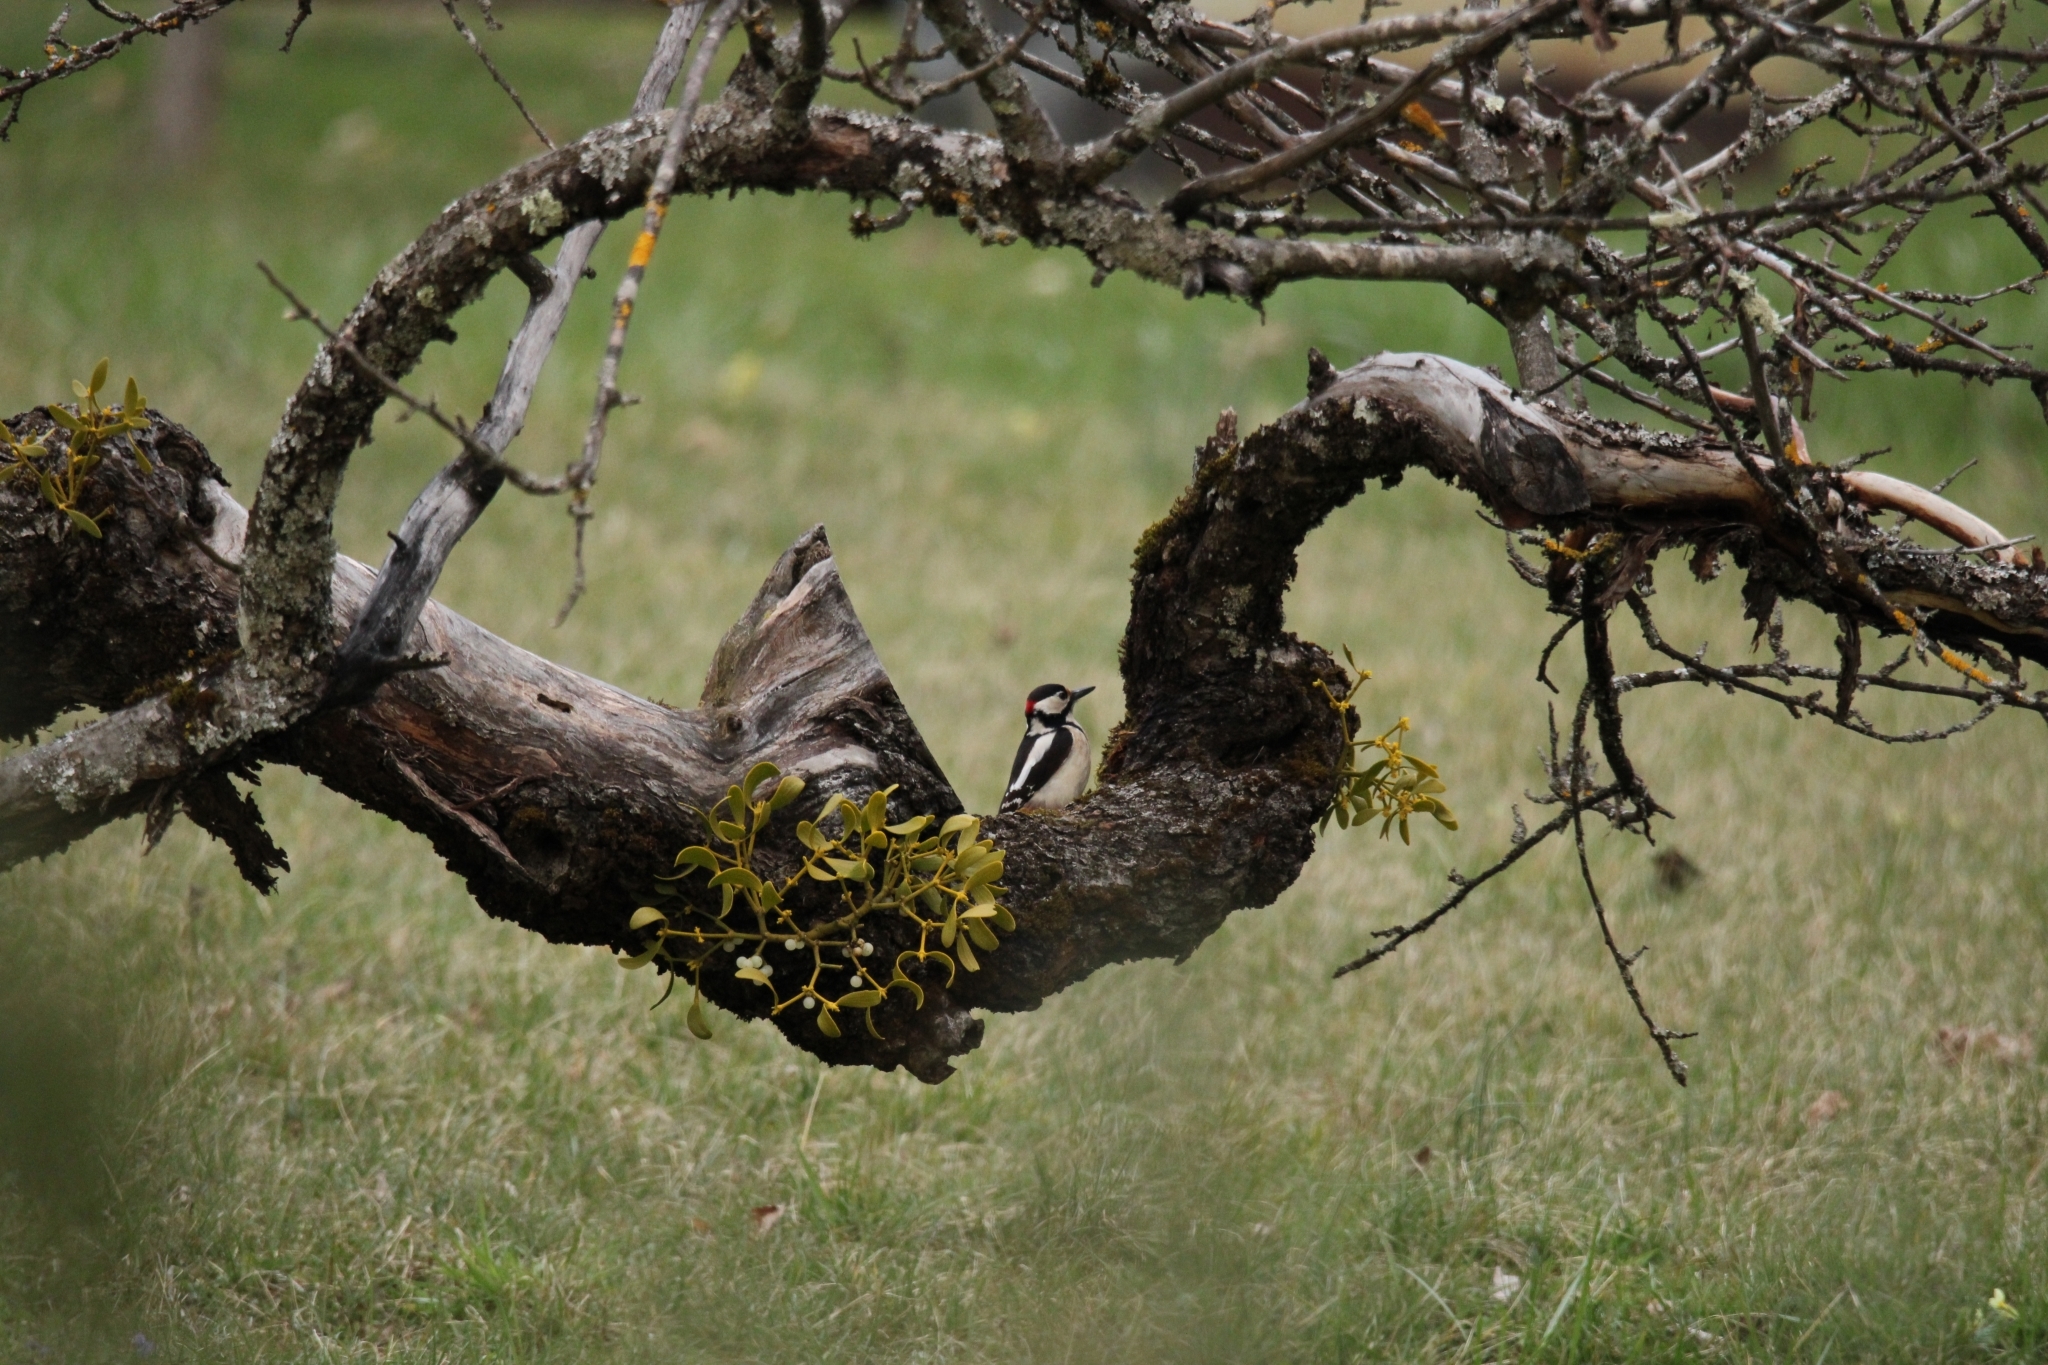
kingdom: Animalia
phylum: Chordata
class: Aves
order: Piciformes
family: Picidae
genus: Dendrocopos
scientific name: Dendrocopos major
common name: Great spotted woodpecker
